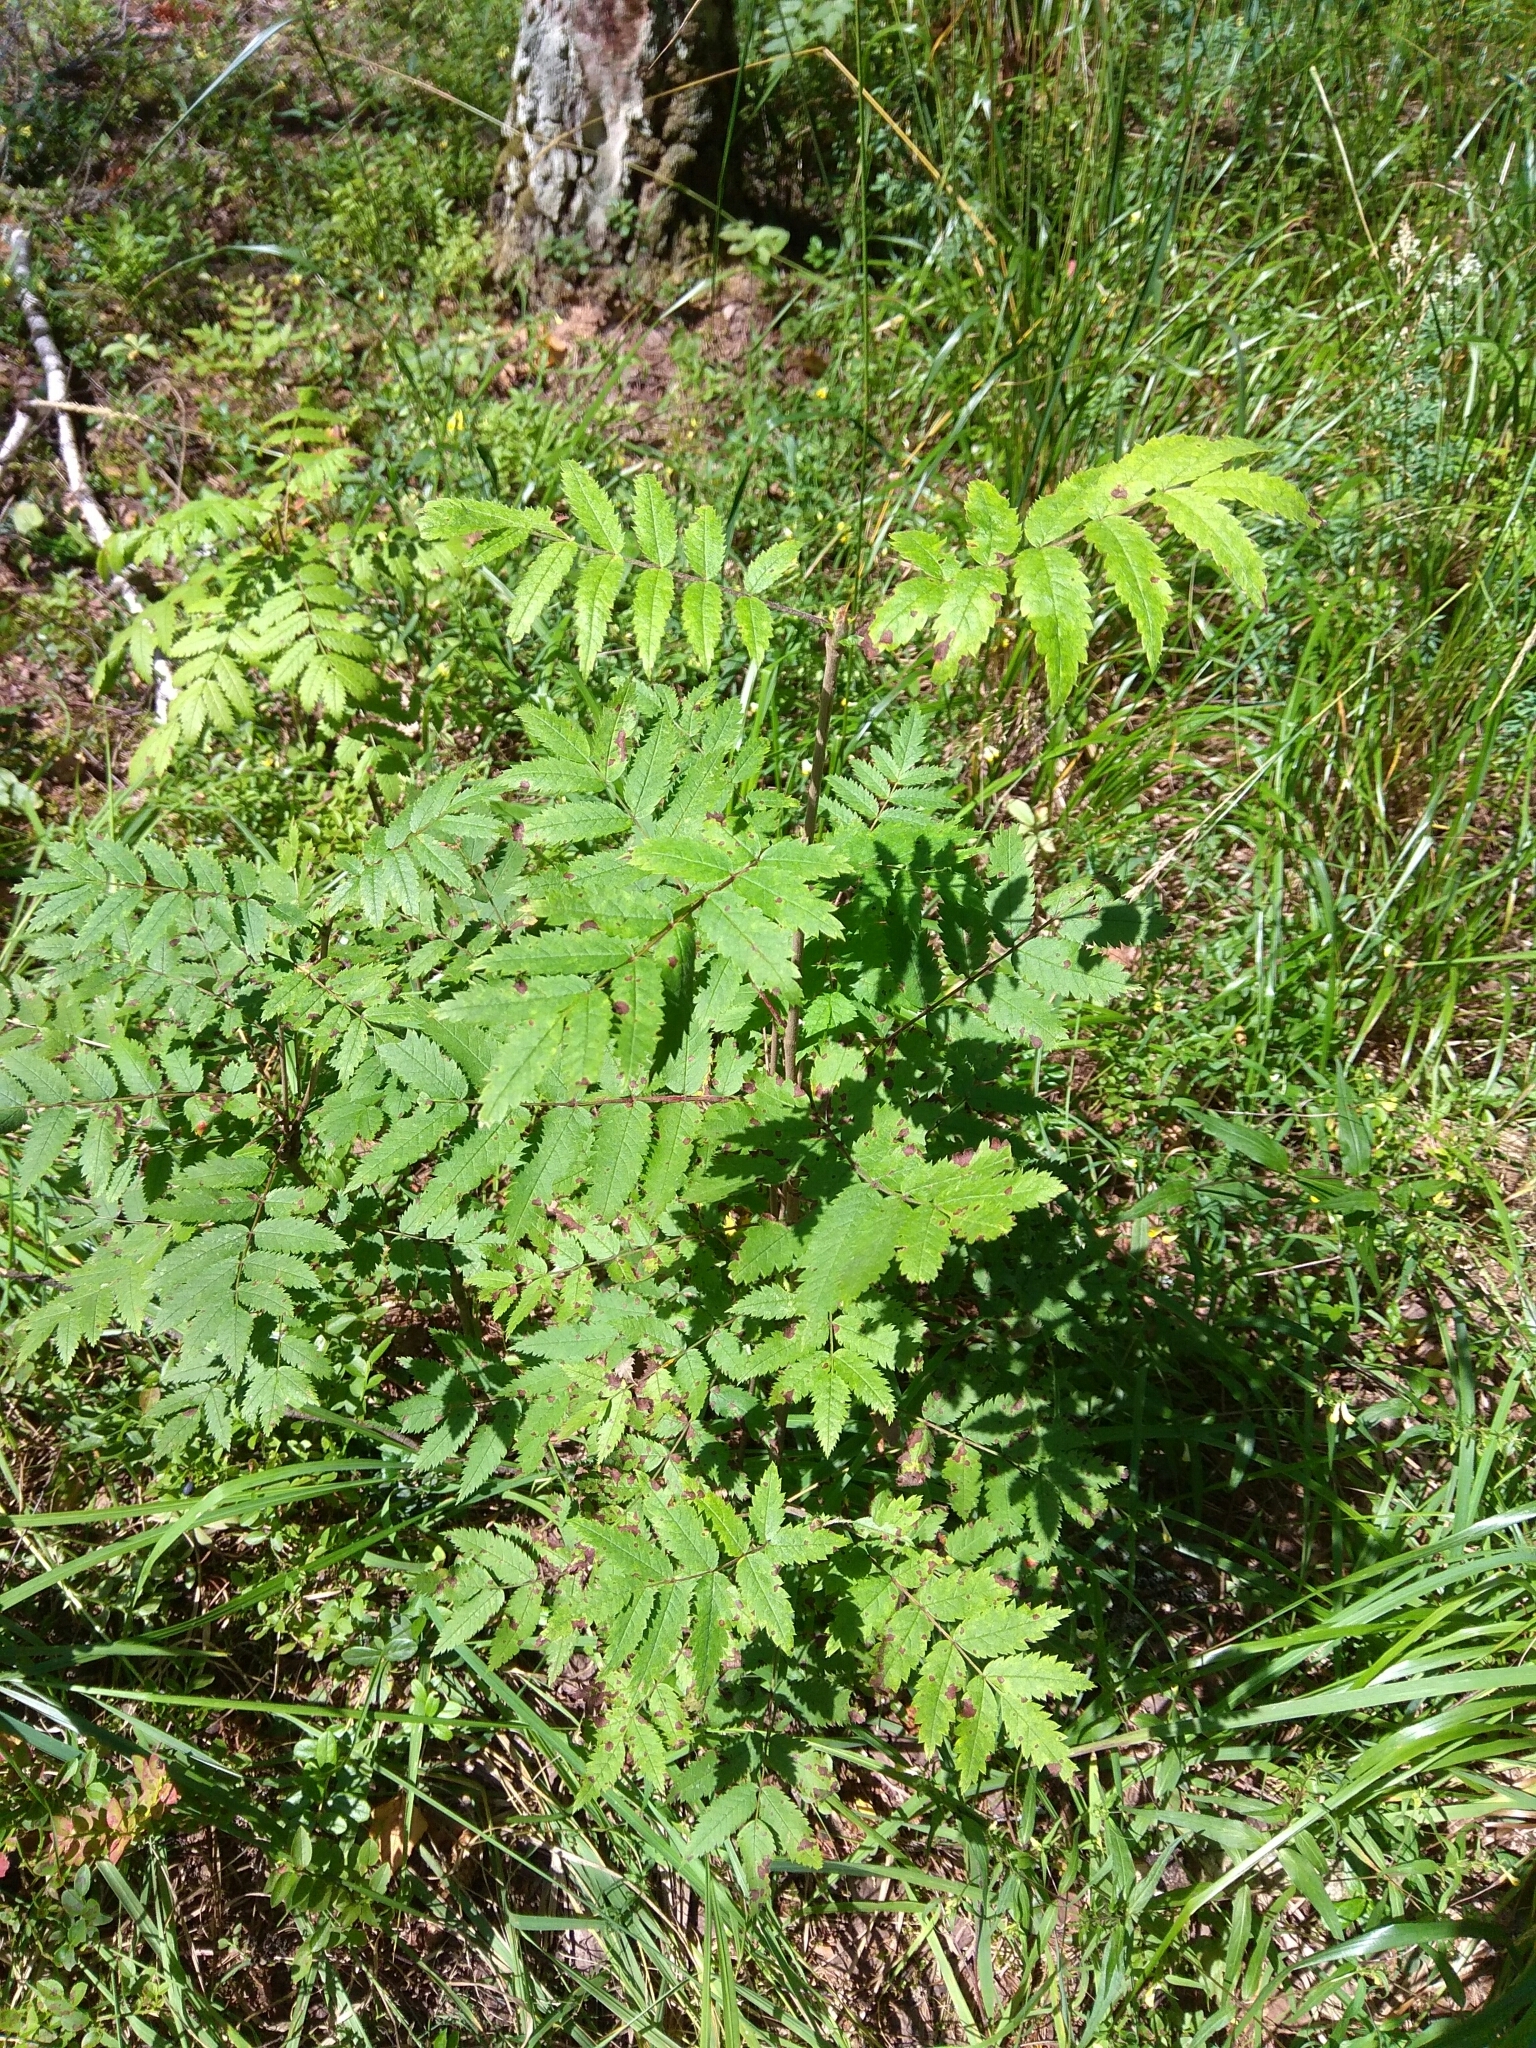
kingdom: Plantae
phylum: Tracheophyta
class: Magnoliopsida
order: Rosales
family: Rosaceae
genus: Sorbus
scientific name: Sorbus aucuparia
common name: Rowan
